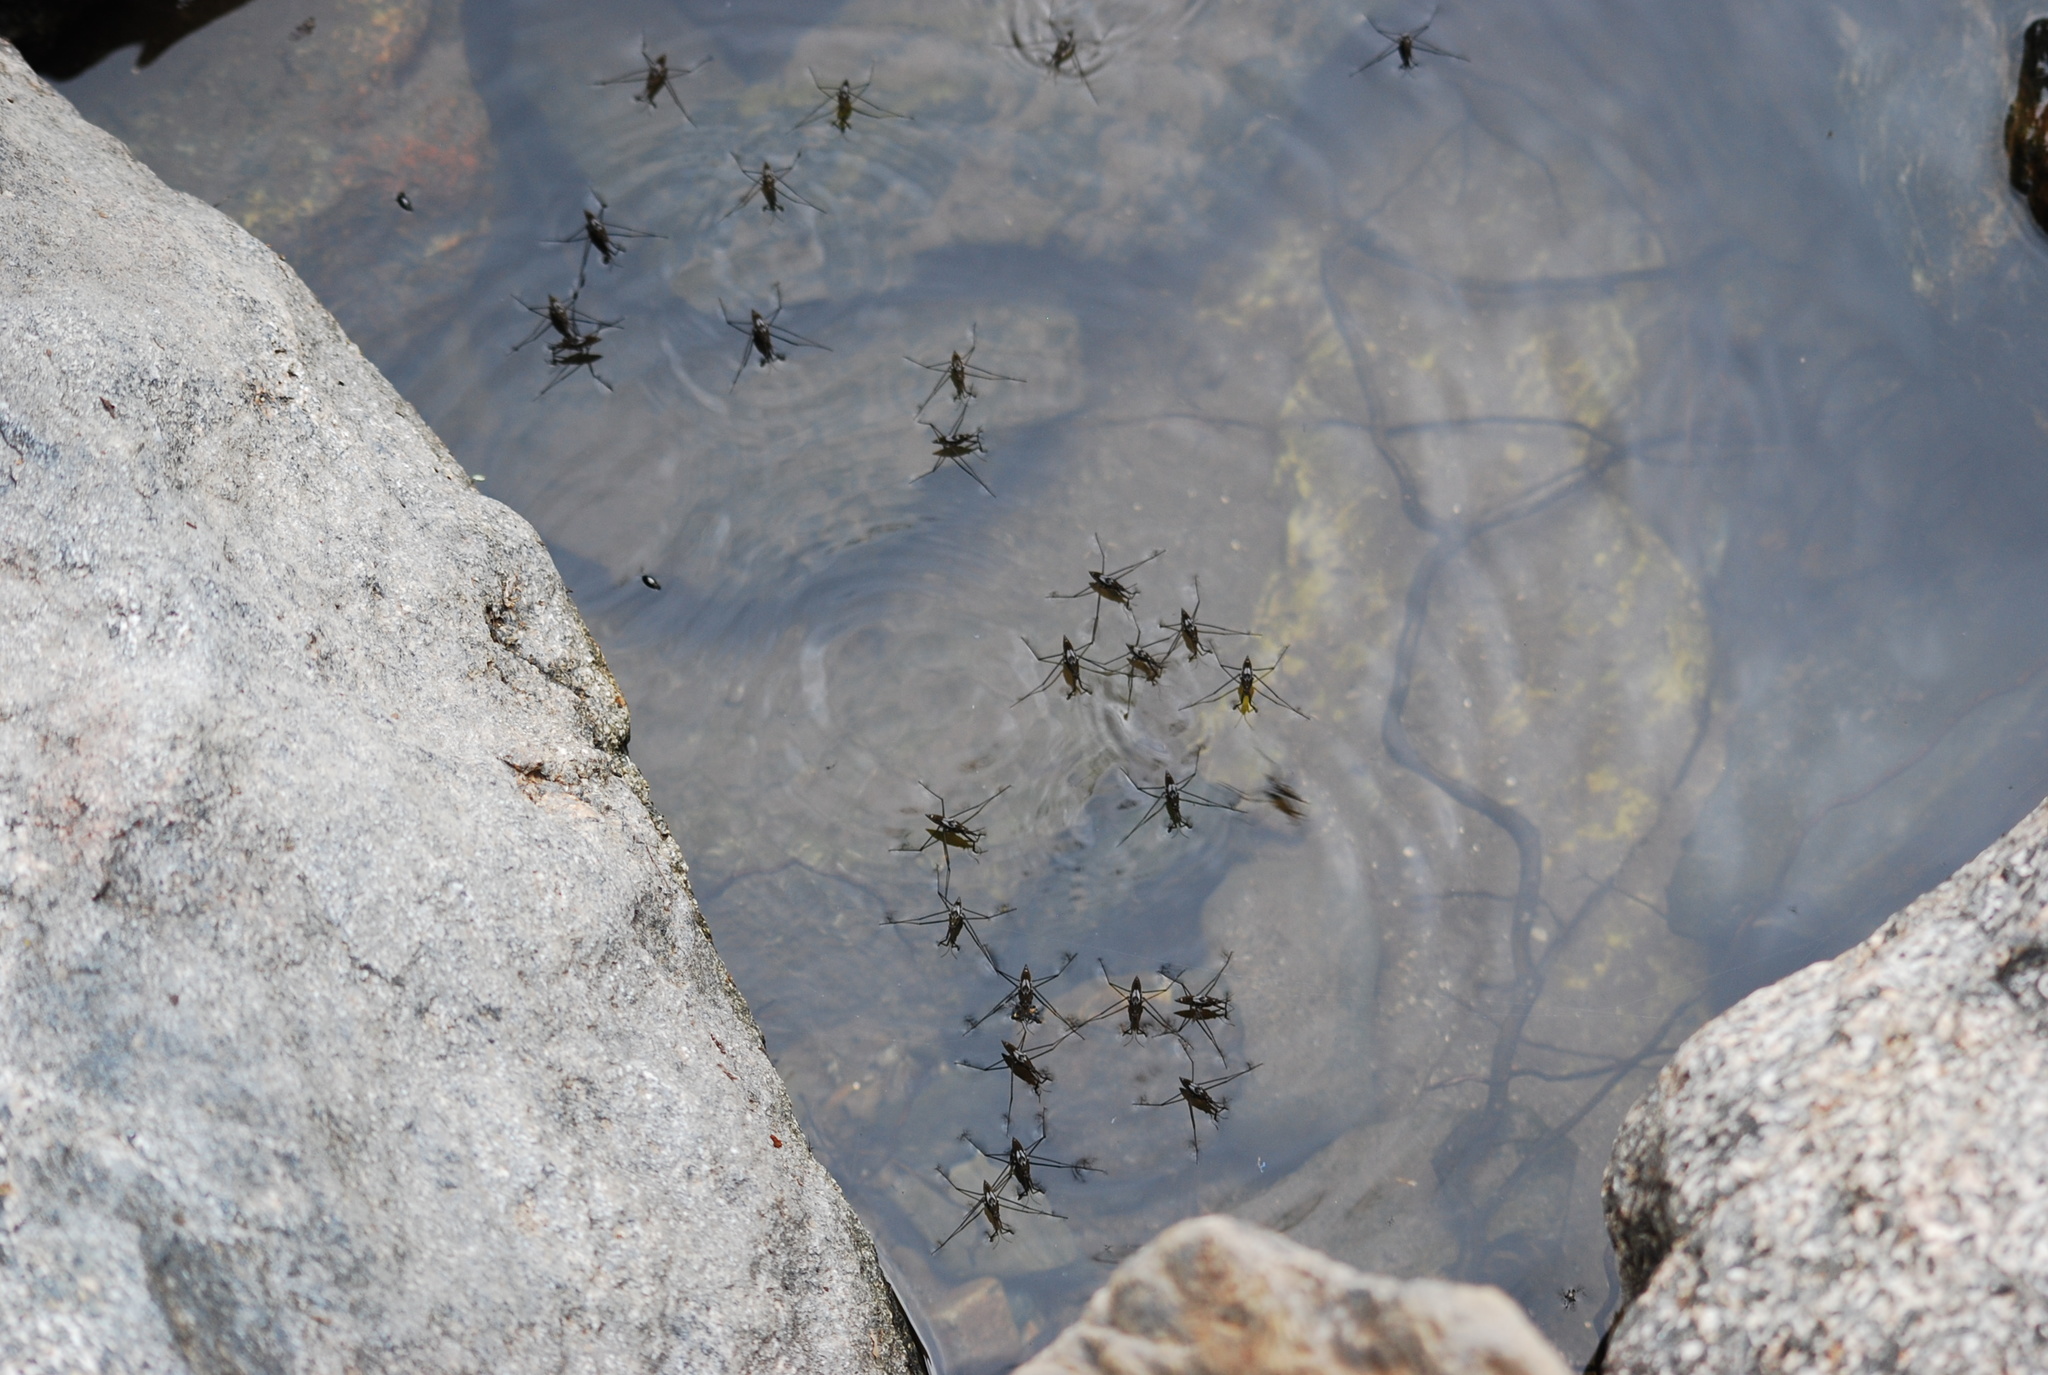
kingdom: Animalia
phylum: Arthropoda
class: Insecta
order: Hemiptera
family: Gerridae
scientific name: Gerridae
